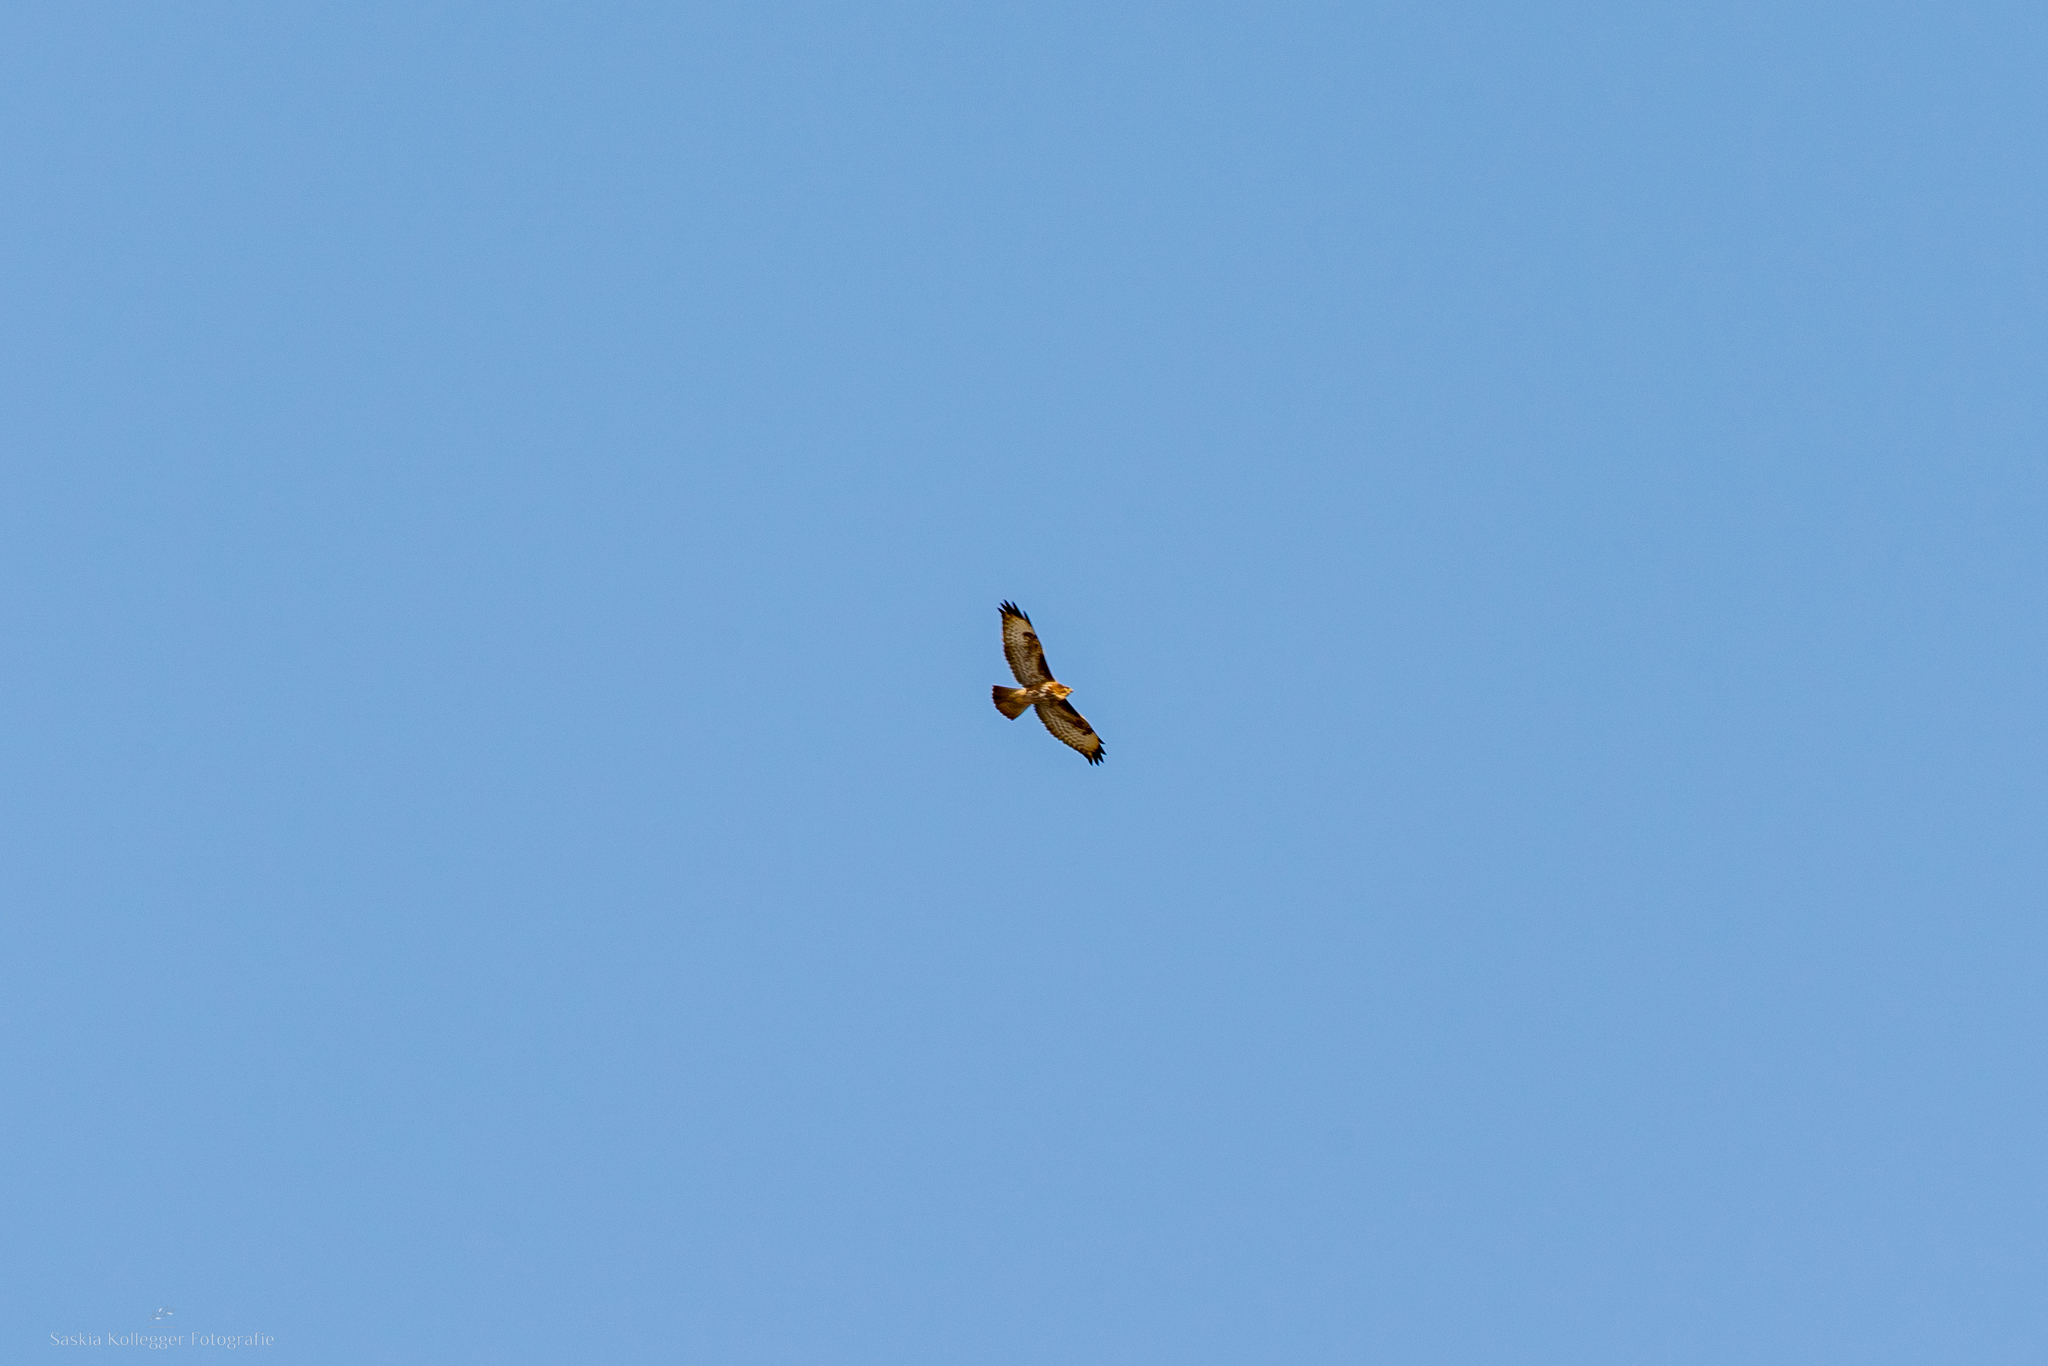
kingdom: Animalia
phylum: Chordata
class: Aves
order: Accipitriformes
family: Accipitridae
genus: Buteo
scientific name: Buteo buteo
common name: Common buzzard
